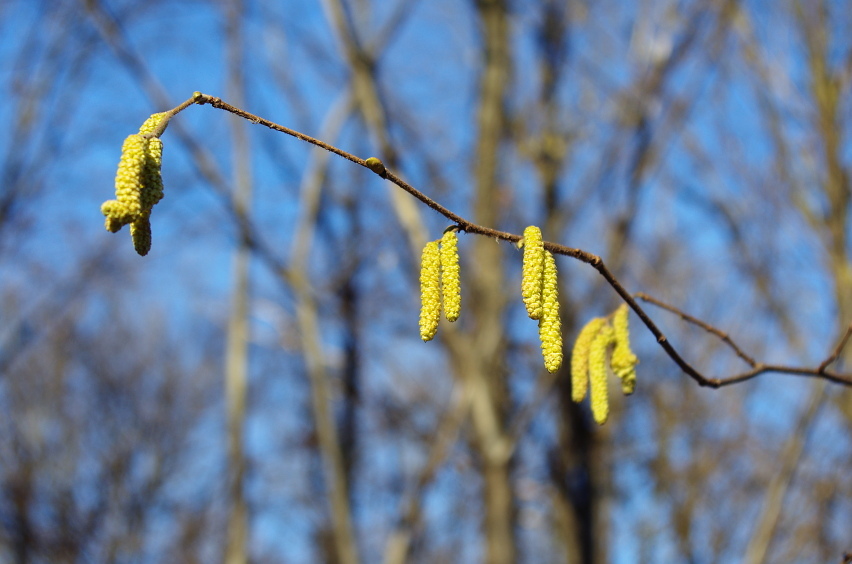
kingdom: Plantae
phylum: Tracheophyta
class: Magnoliopsida
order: Fagales
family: Betulaceae
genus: Corylus
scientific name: Corylus avellana
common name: European hazel
